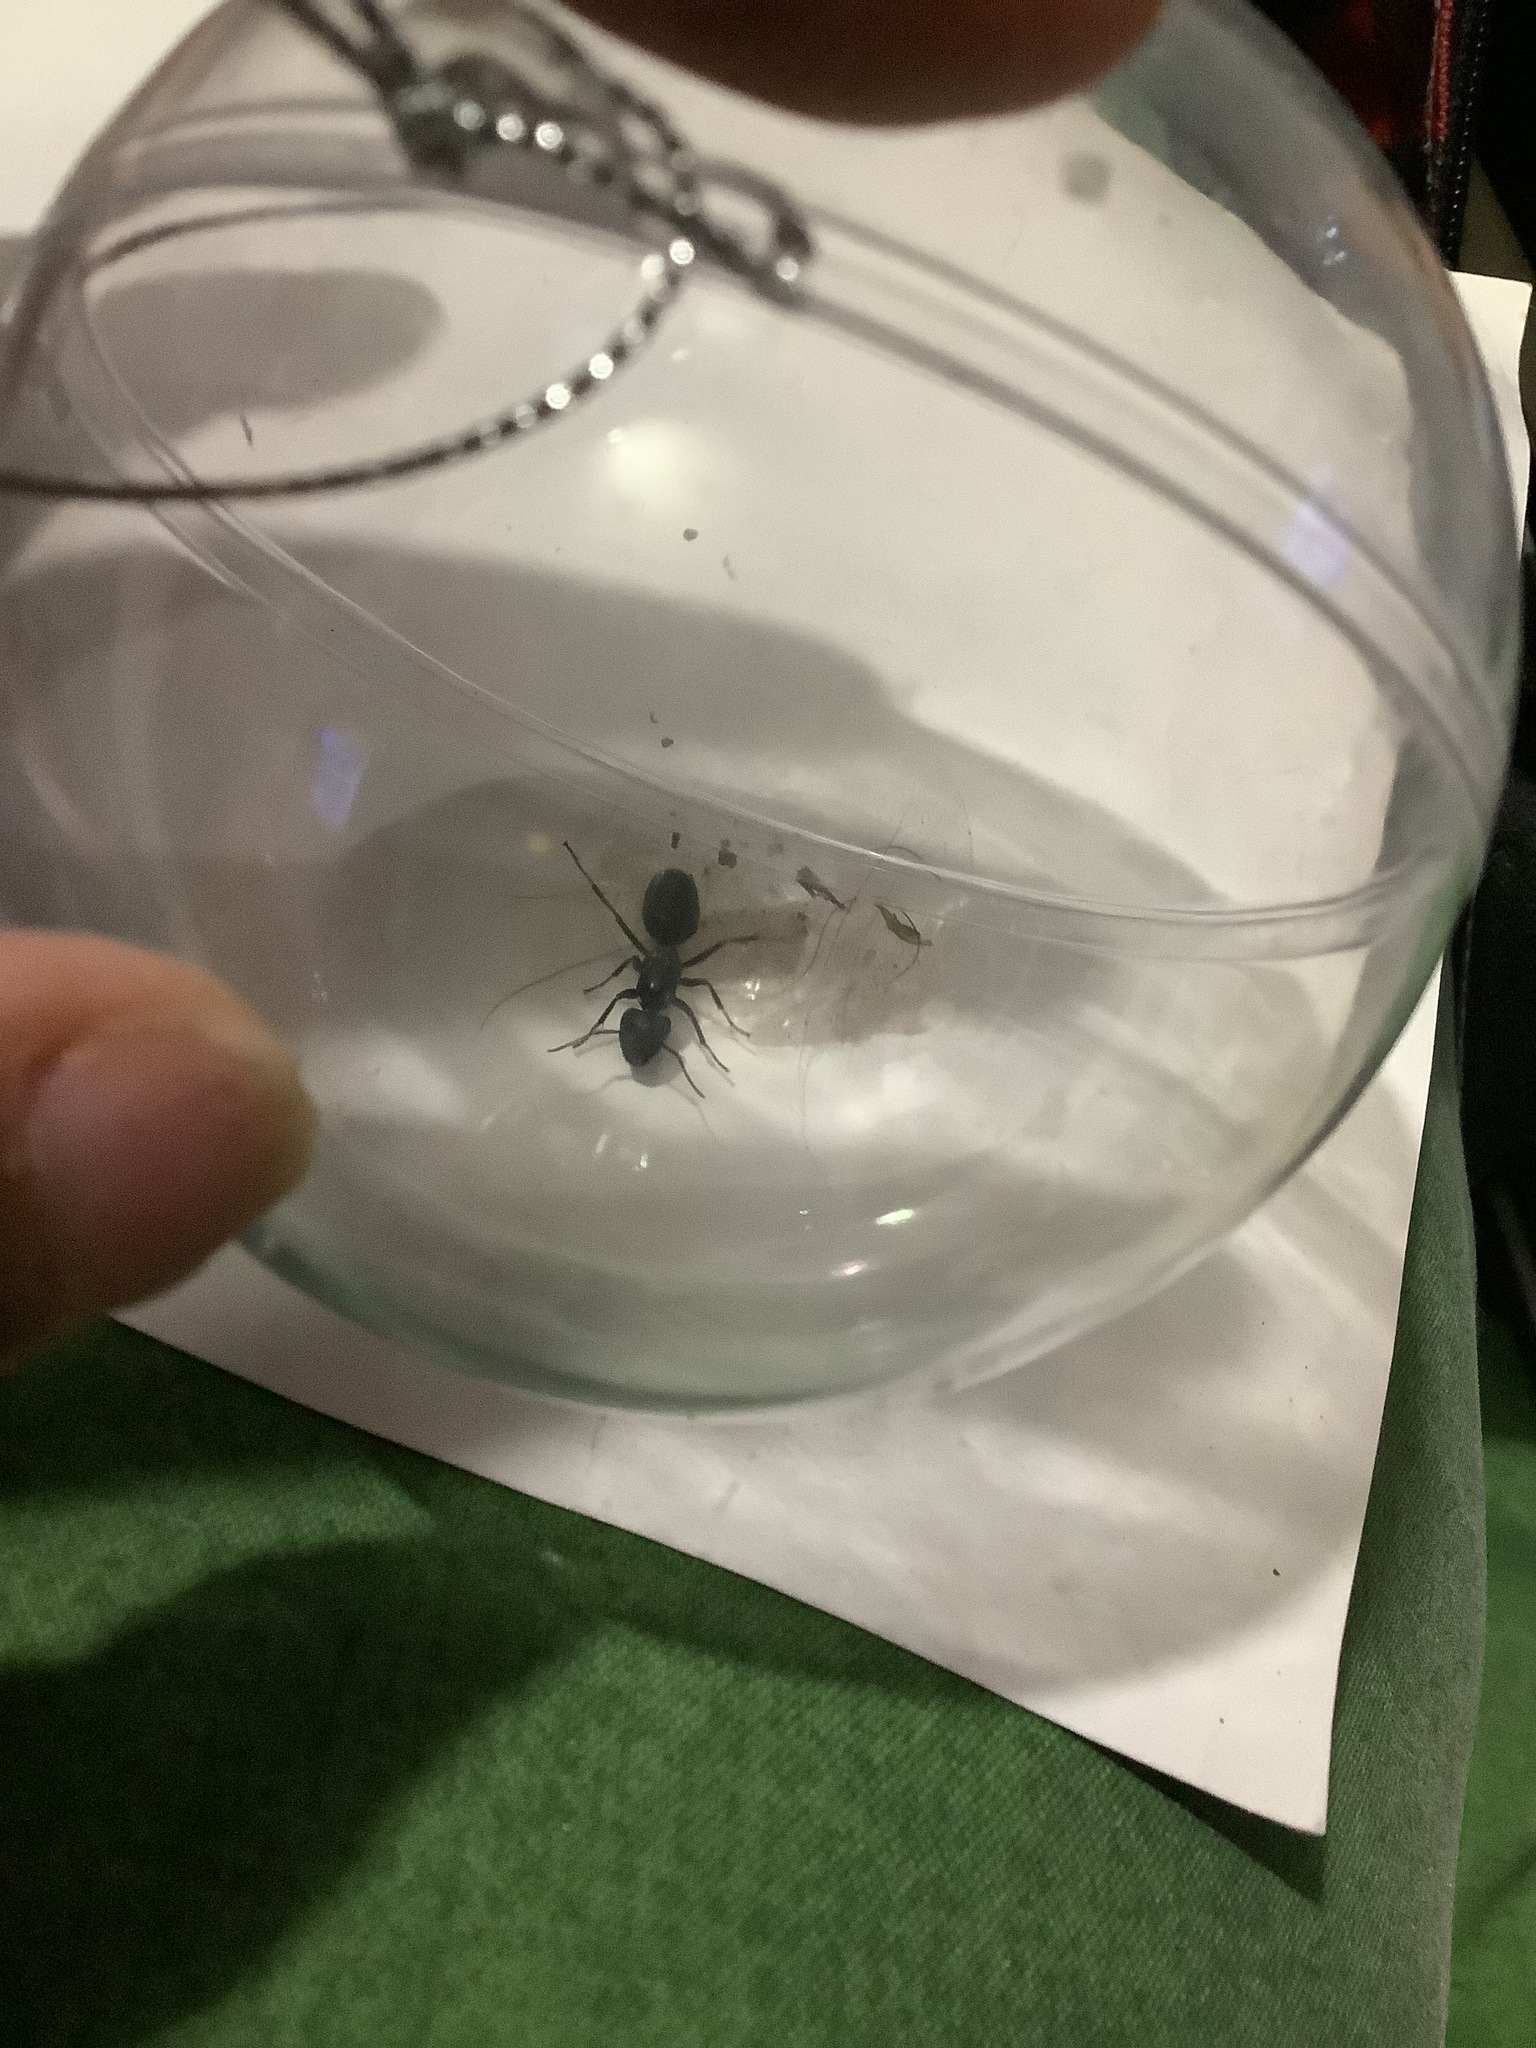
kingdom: Animalia
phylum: Arthropoda
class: Insecta
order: Hymenoptera
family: Formicidae
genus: Camponotus
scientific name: Camponotus pennsylvanicus
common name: Black carpenter ant
